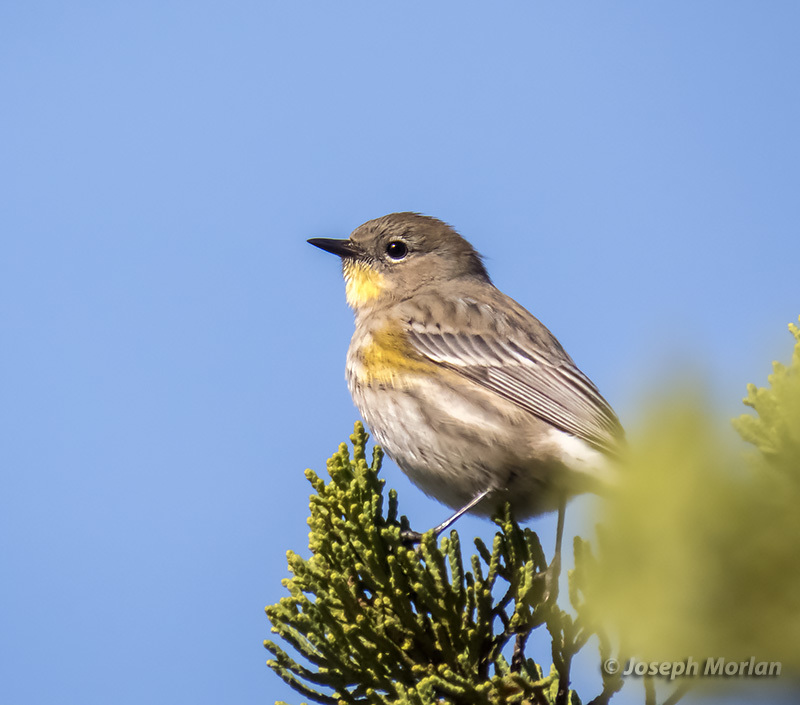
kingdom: Animalia
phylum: Chordata
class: Aves
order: Passeriformes
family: Parulidae
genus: Setophaga
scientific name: Setophaga coronata
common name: Myrtle warbler
